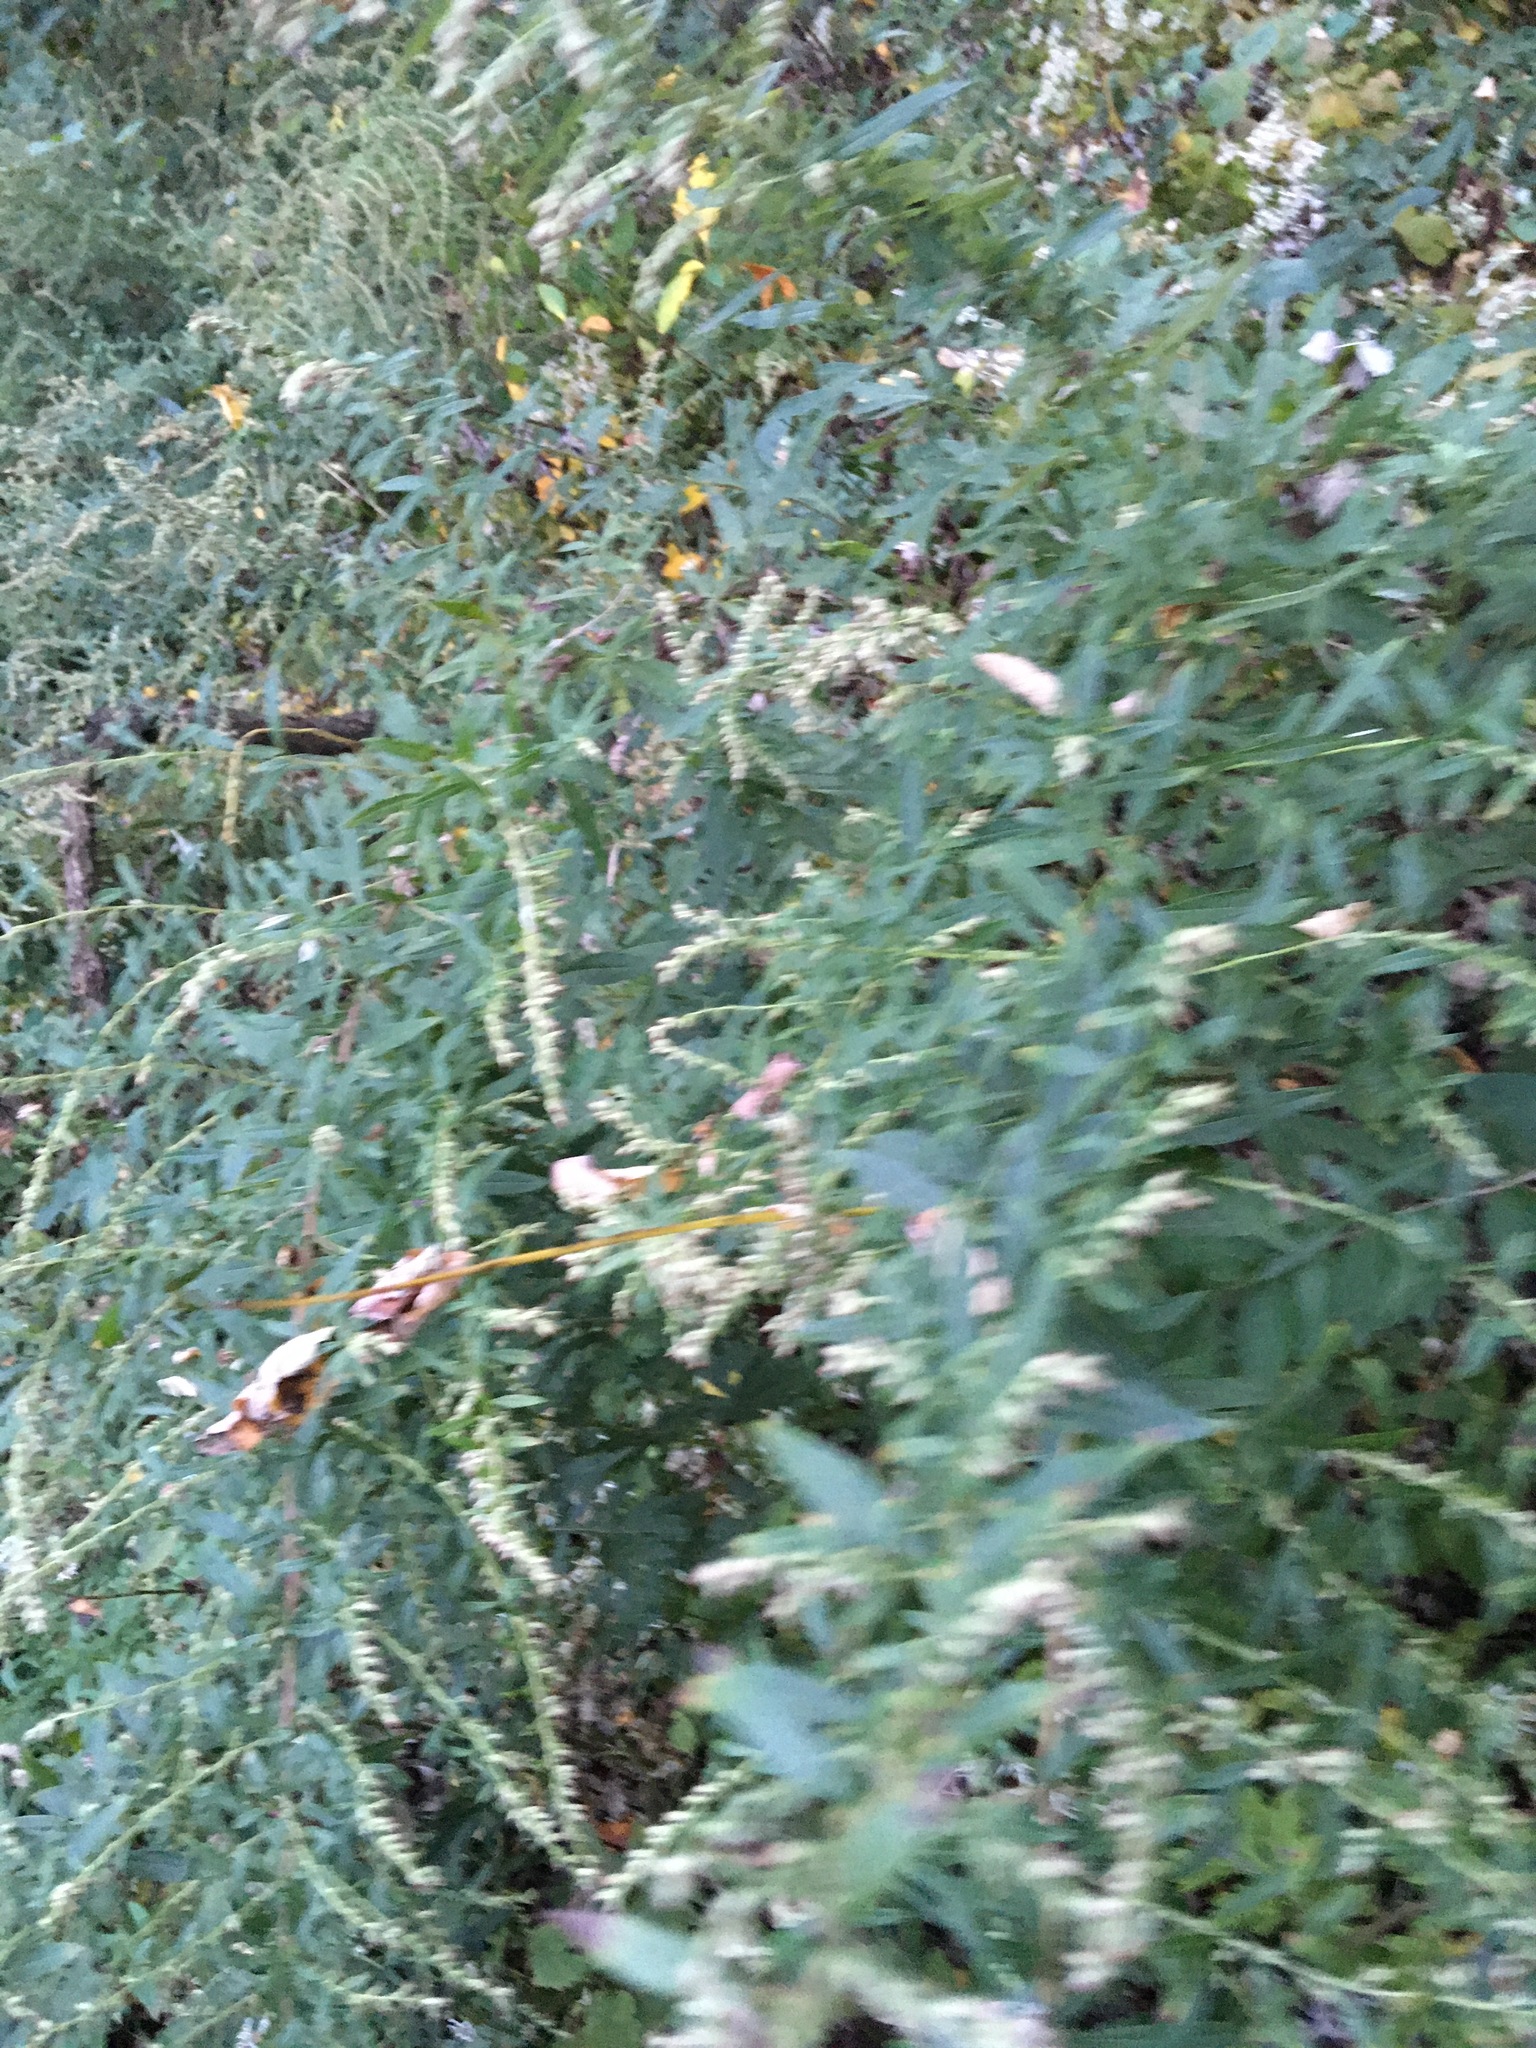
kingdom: Plantae
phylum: Tracheophyta
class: Magnoliopsida
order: Asterales
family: Asteraceae
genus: Artemisia
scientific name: Artemisia vulgaris
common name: Mugwort
